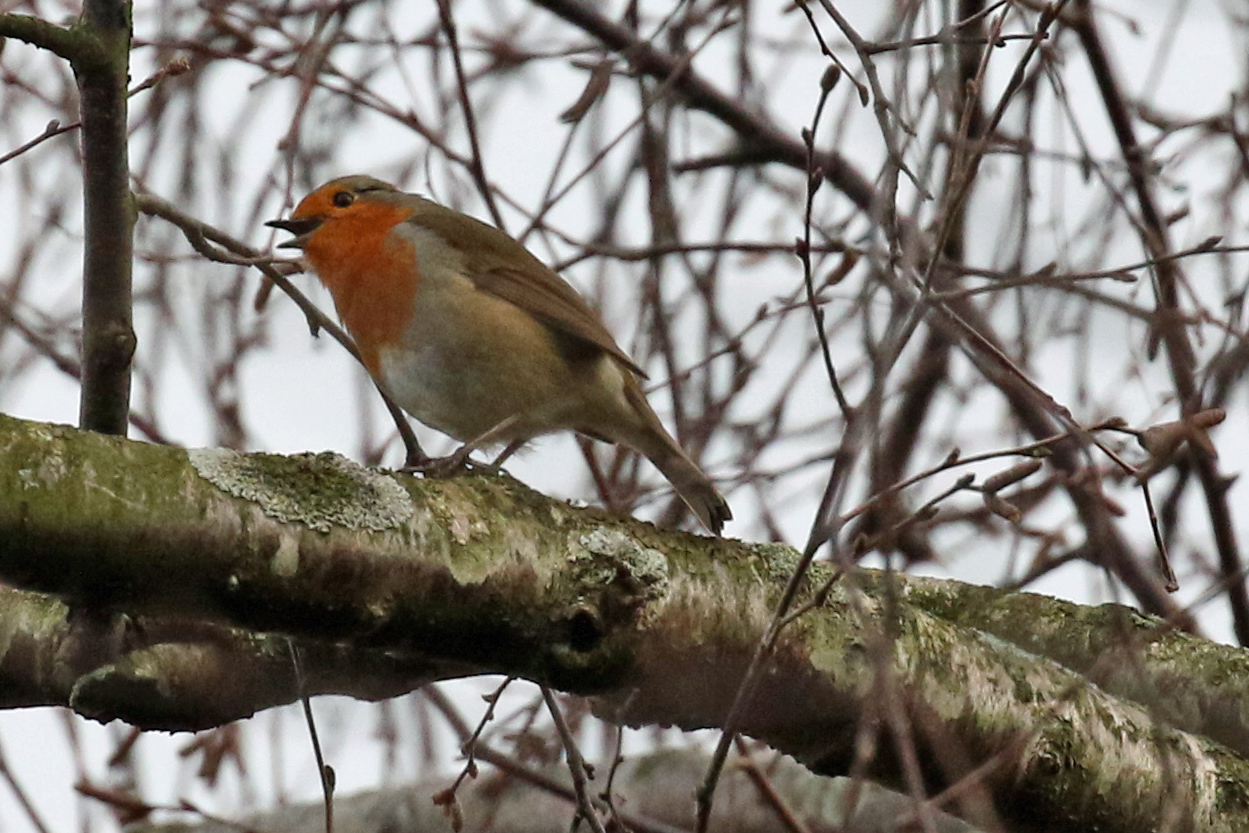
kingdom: Animalia
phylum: Chordata
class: Aves
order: Passeriformes
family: Muscicapidae
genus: Erithacus
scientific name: Erithacus rubecula
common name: European robin
